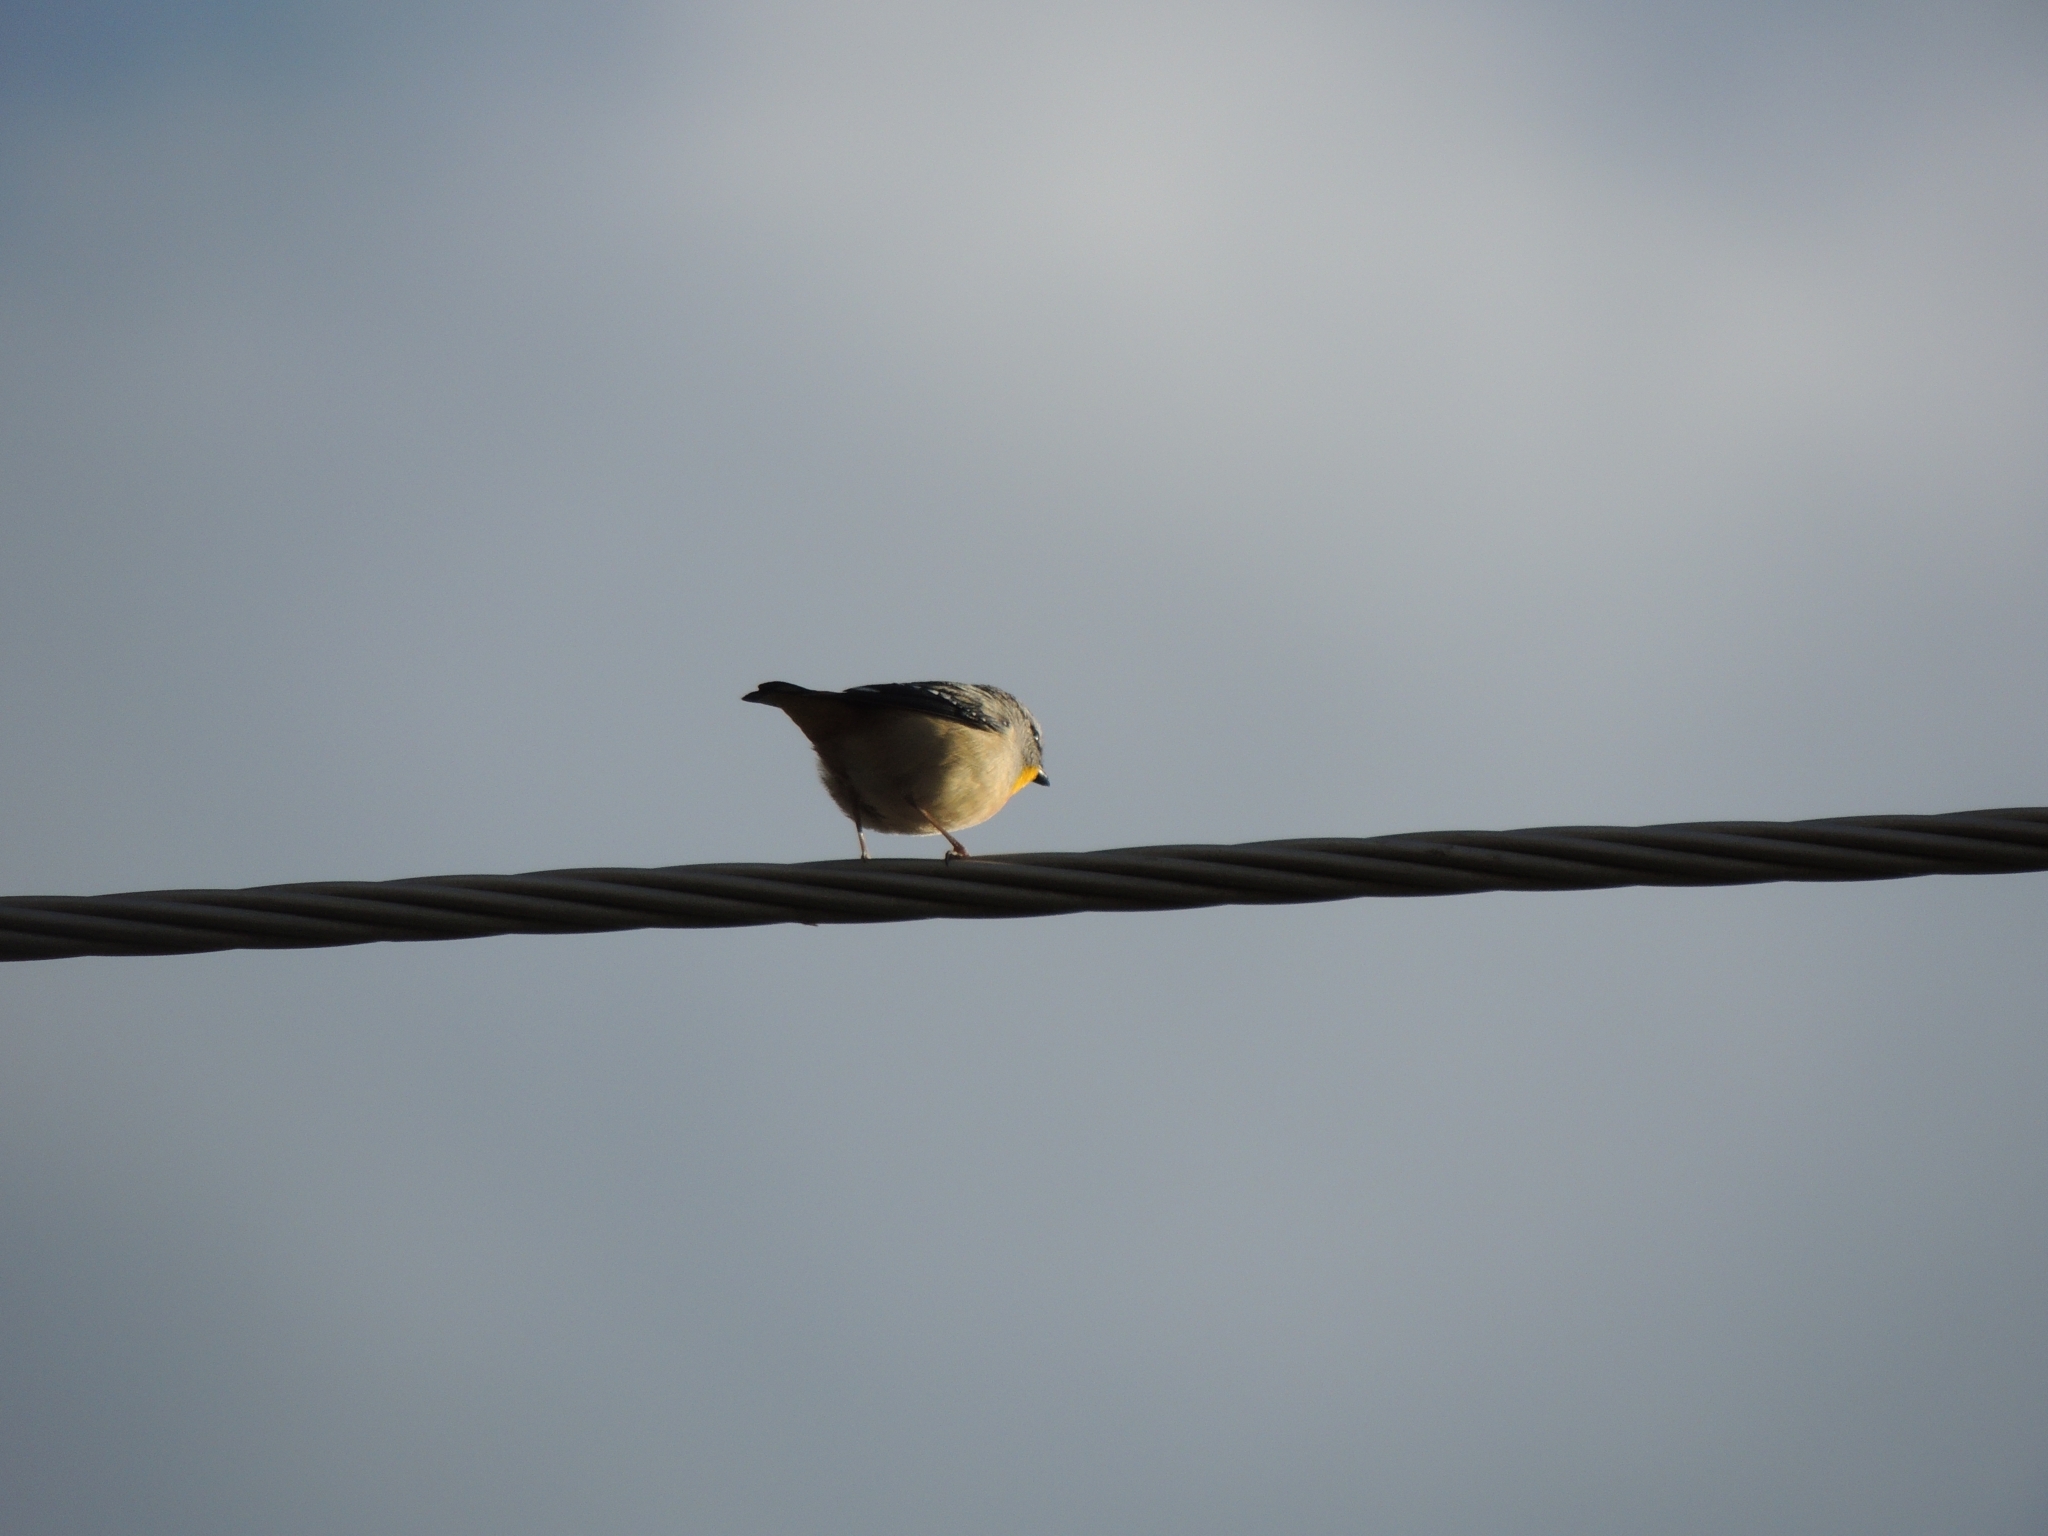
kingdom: Animalia
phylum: Chordata
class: Aves
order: Passeriformes
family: Pardalotidae
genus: Pardalotus
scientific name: Pardalotus punctatus
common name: Spotted pardalote
